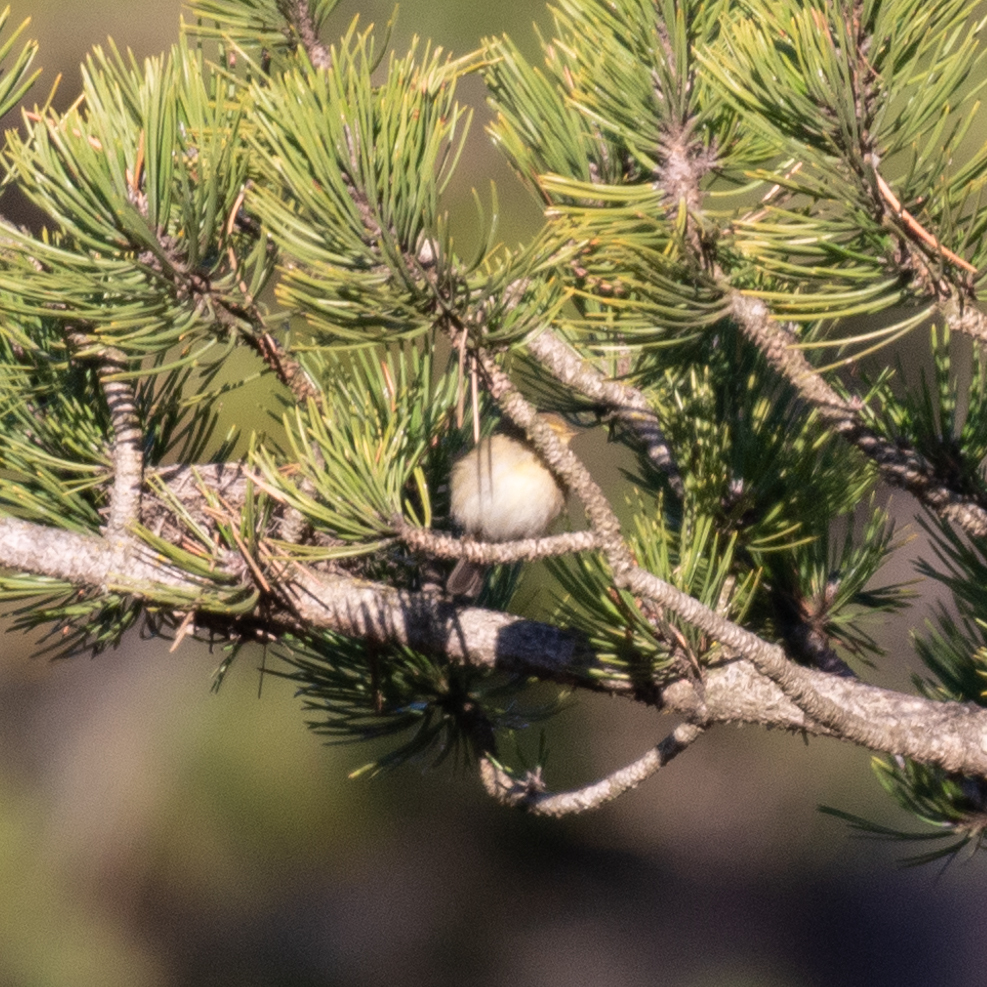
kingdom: Animalia
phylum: Chordata
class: Aves
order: Passeriformes
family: Phylloscopidae
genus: Phylloscopus
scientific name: Phylloscopus collybita
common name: Common chiffchaff
